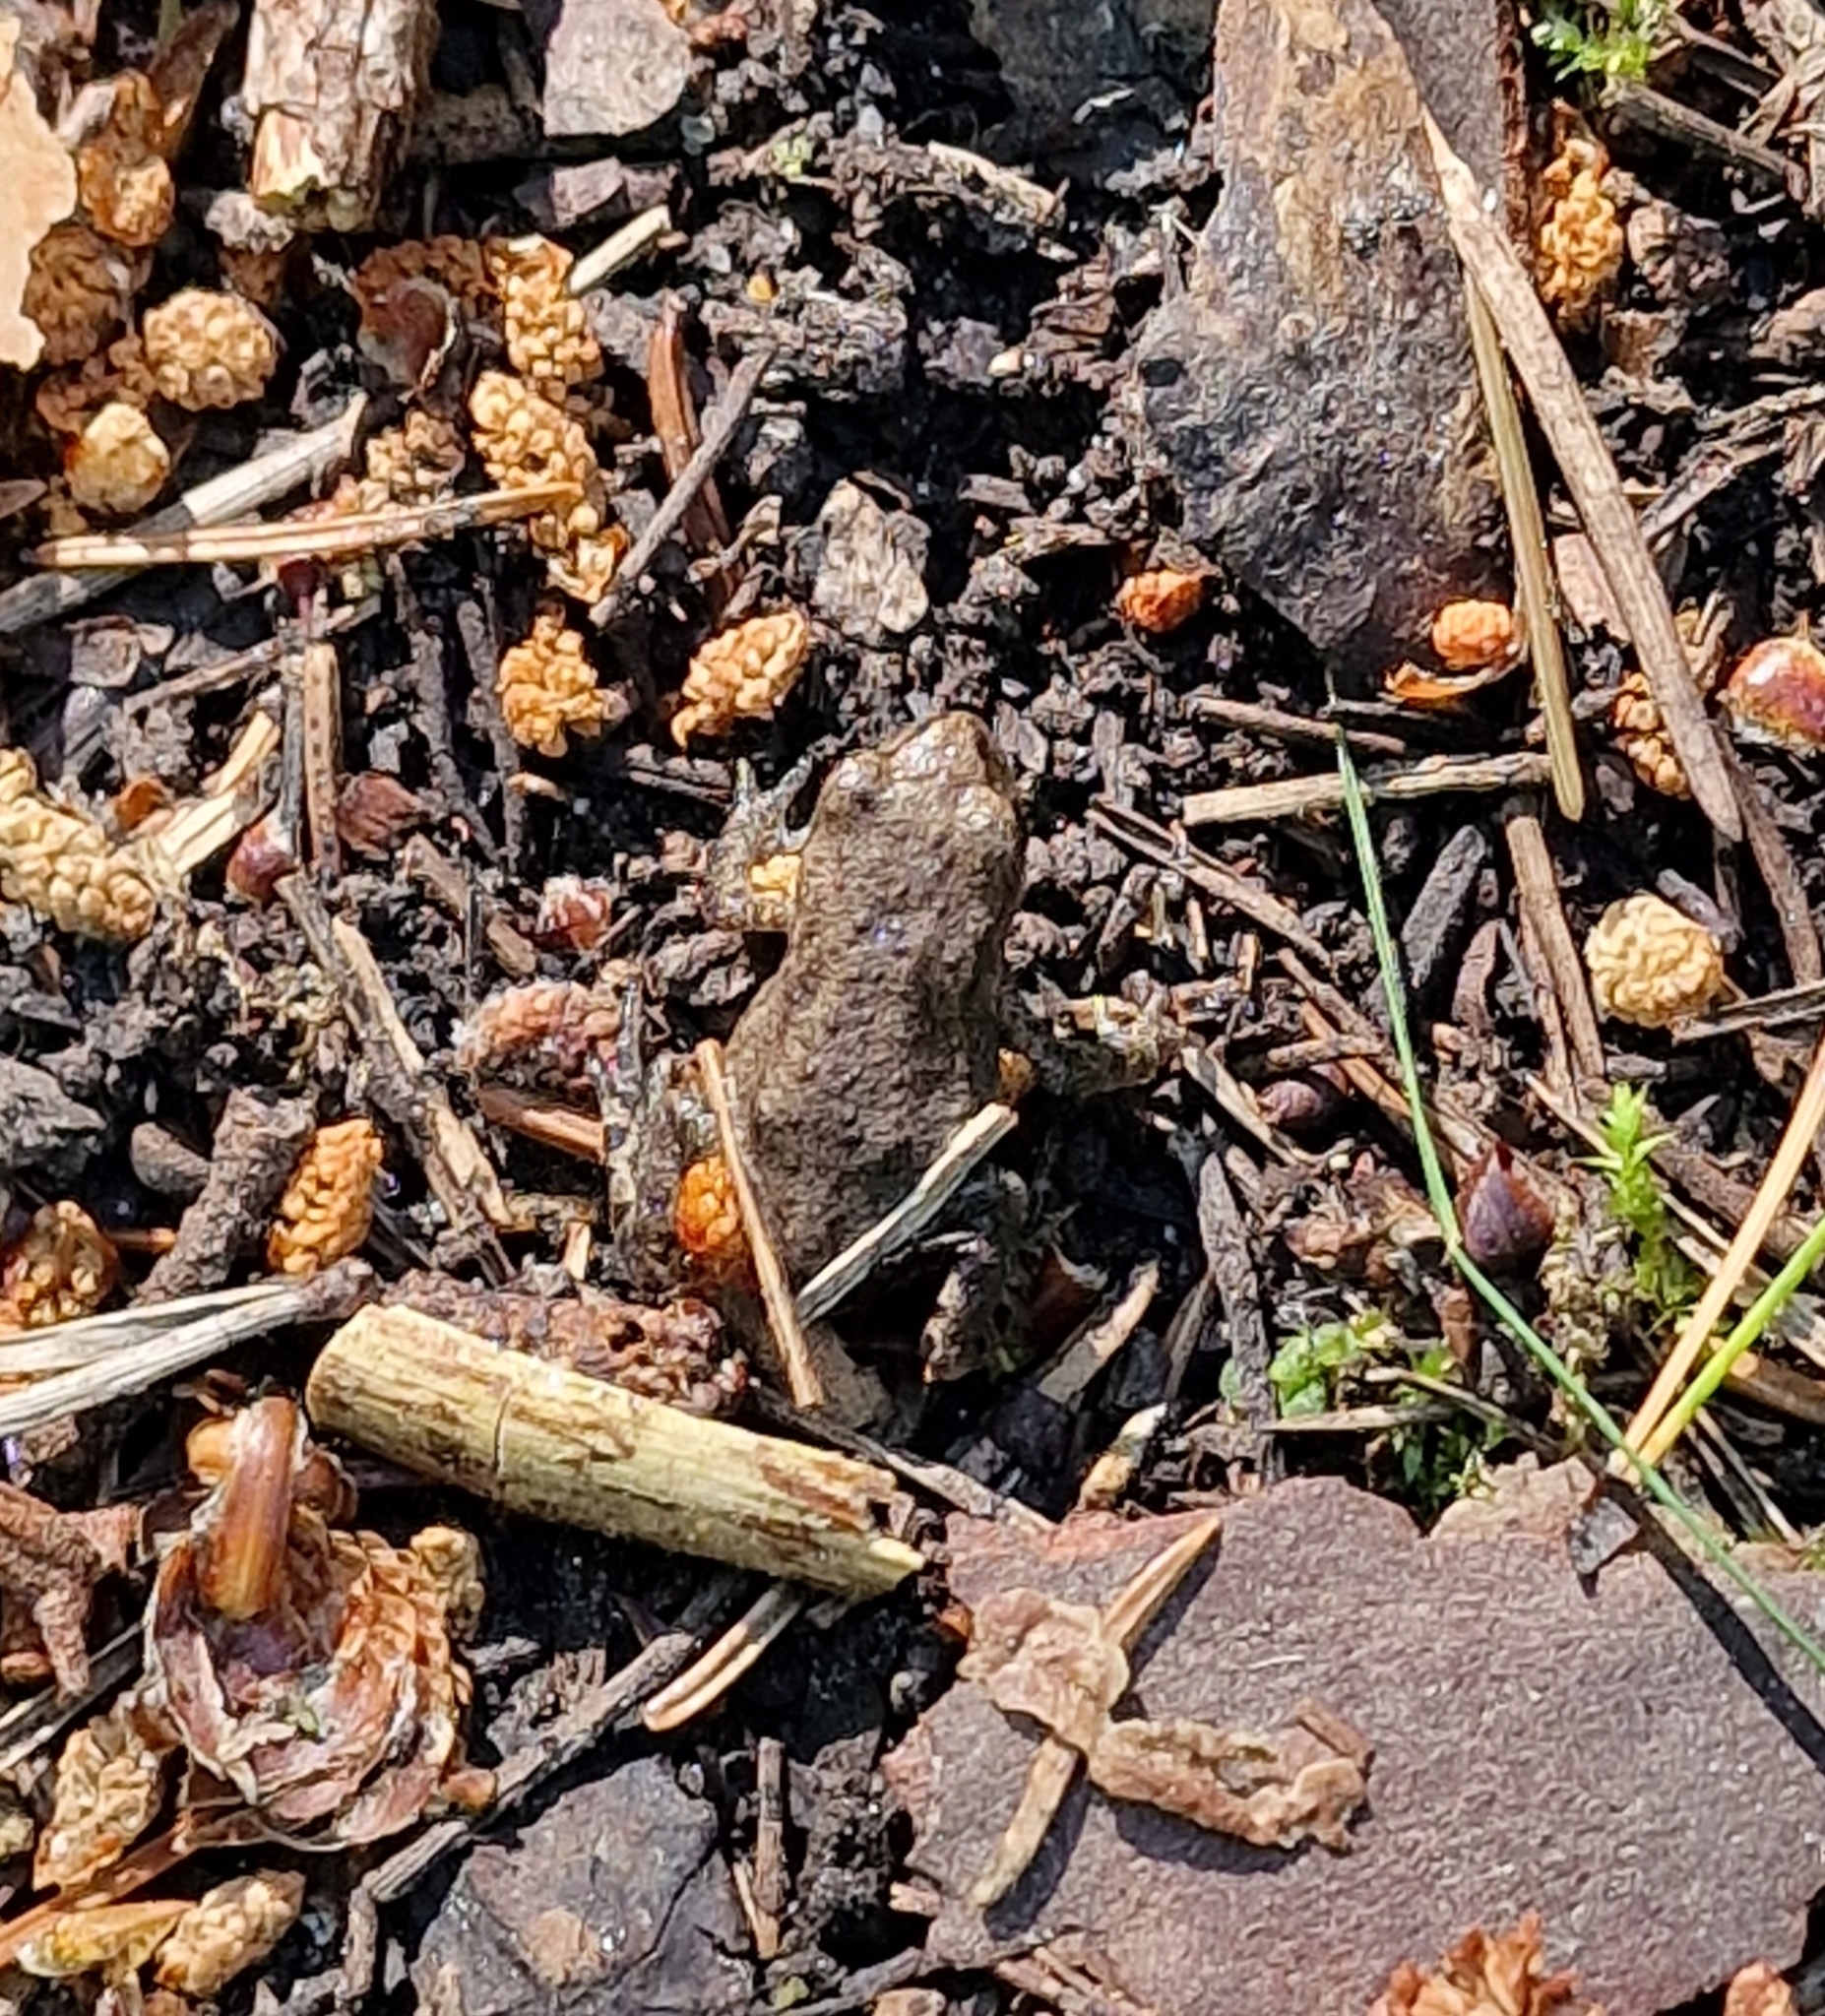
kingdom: Animalia
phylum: Chordata
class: Amphibia
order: Anura
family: Bufonidae
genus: Bufo
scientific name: Bufo bufo
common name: Common toad
